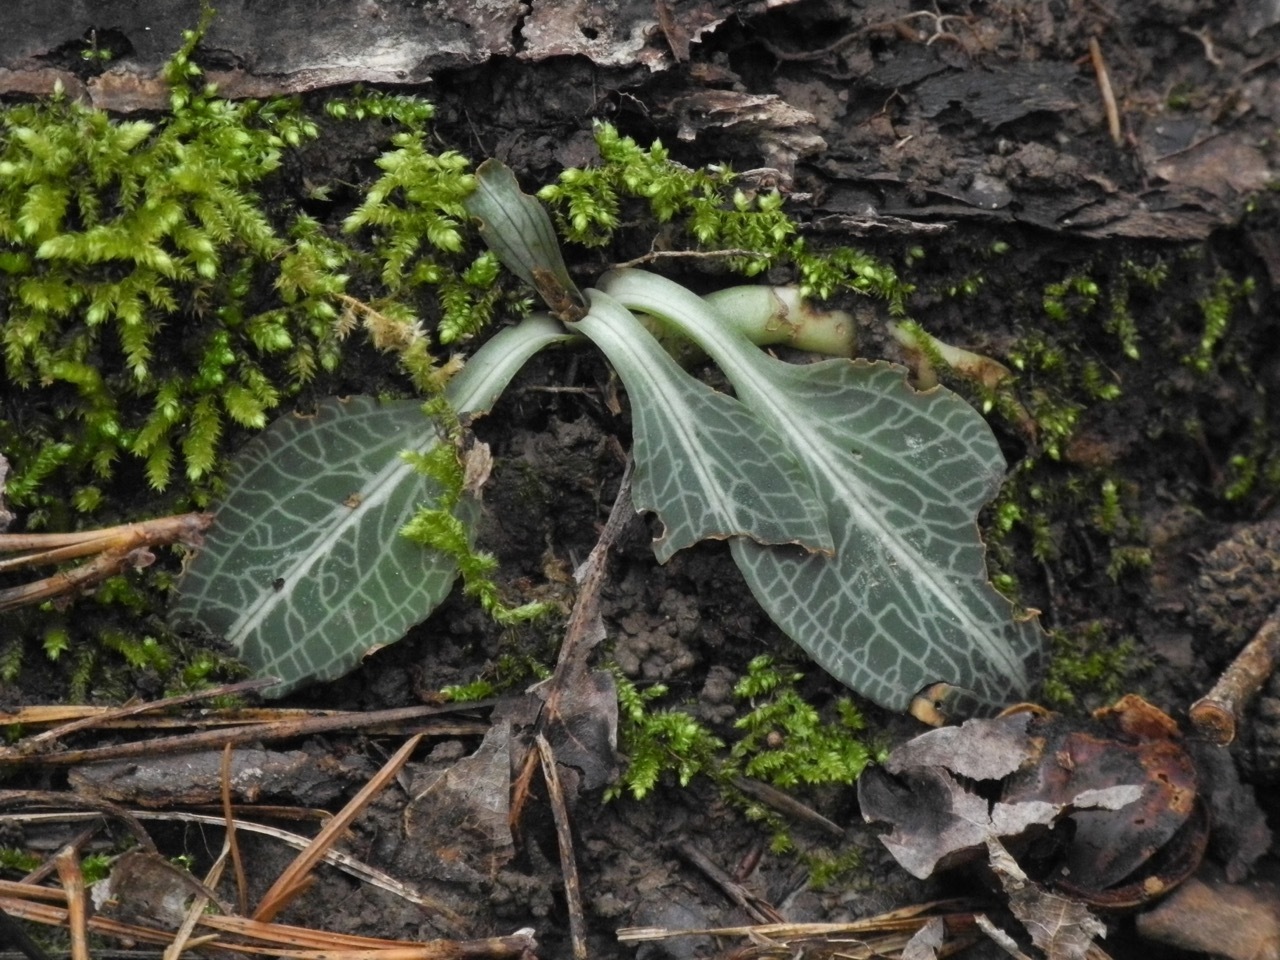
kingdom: Plantae
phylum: Tracheophyta
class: Liliopsida
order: Asparagales
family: Orchidaceae
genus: Goodyera
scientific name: Goodyera pubescens
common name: Downy rattlesnake-plantain
